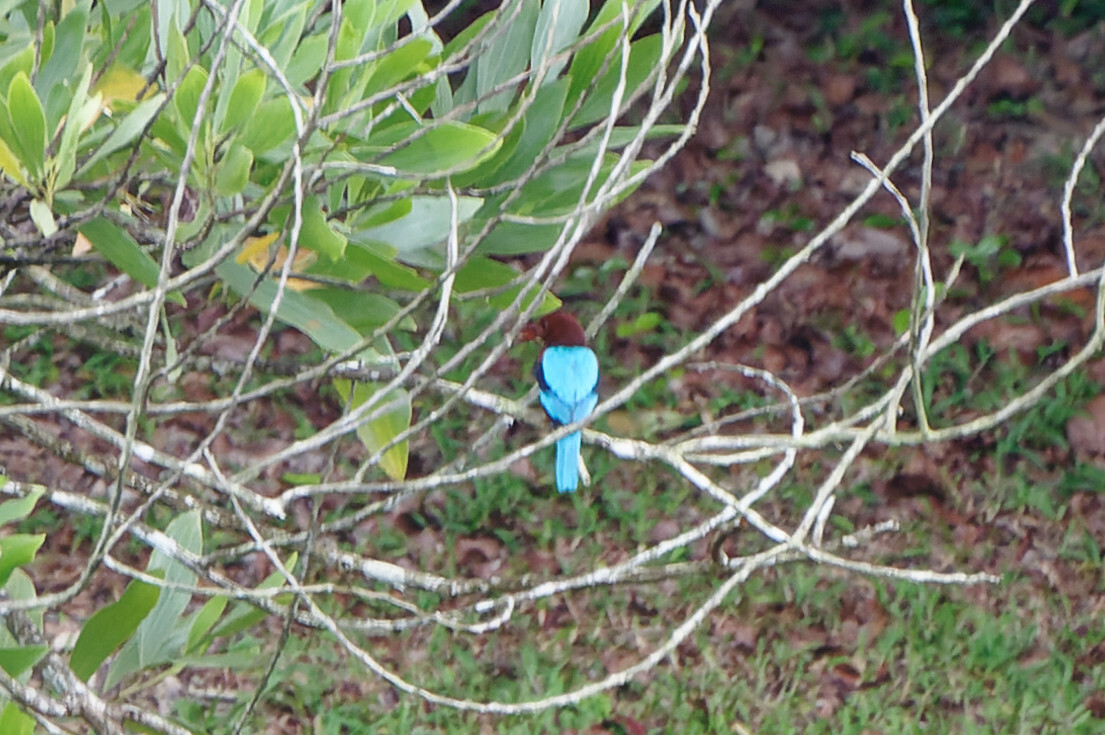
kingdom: Animalia
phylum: Chordata
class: Aves
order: Coraciiformes
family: Alcedinidae
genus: Halcyon
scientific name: Halcyon smyrnensis
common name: White-throated kingfisher
